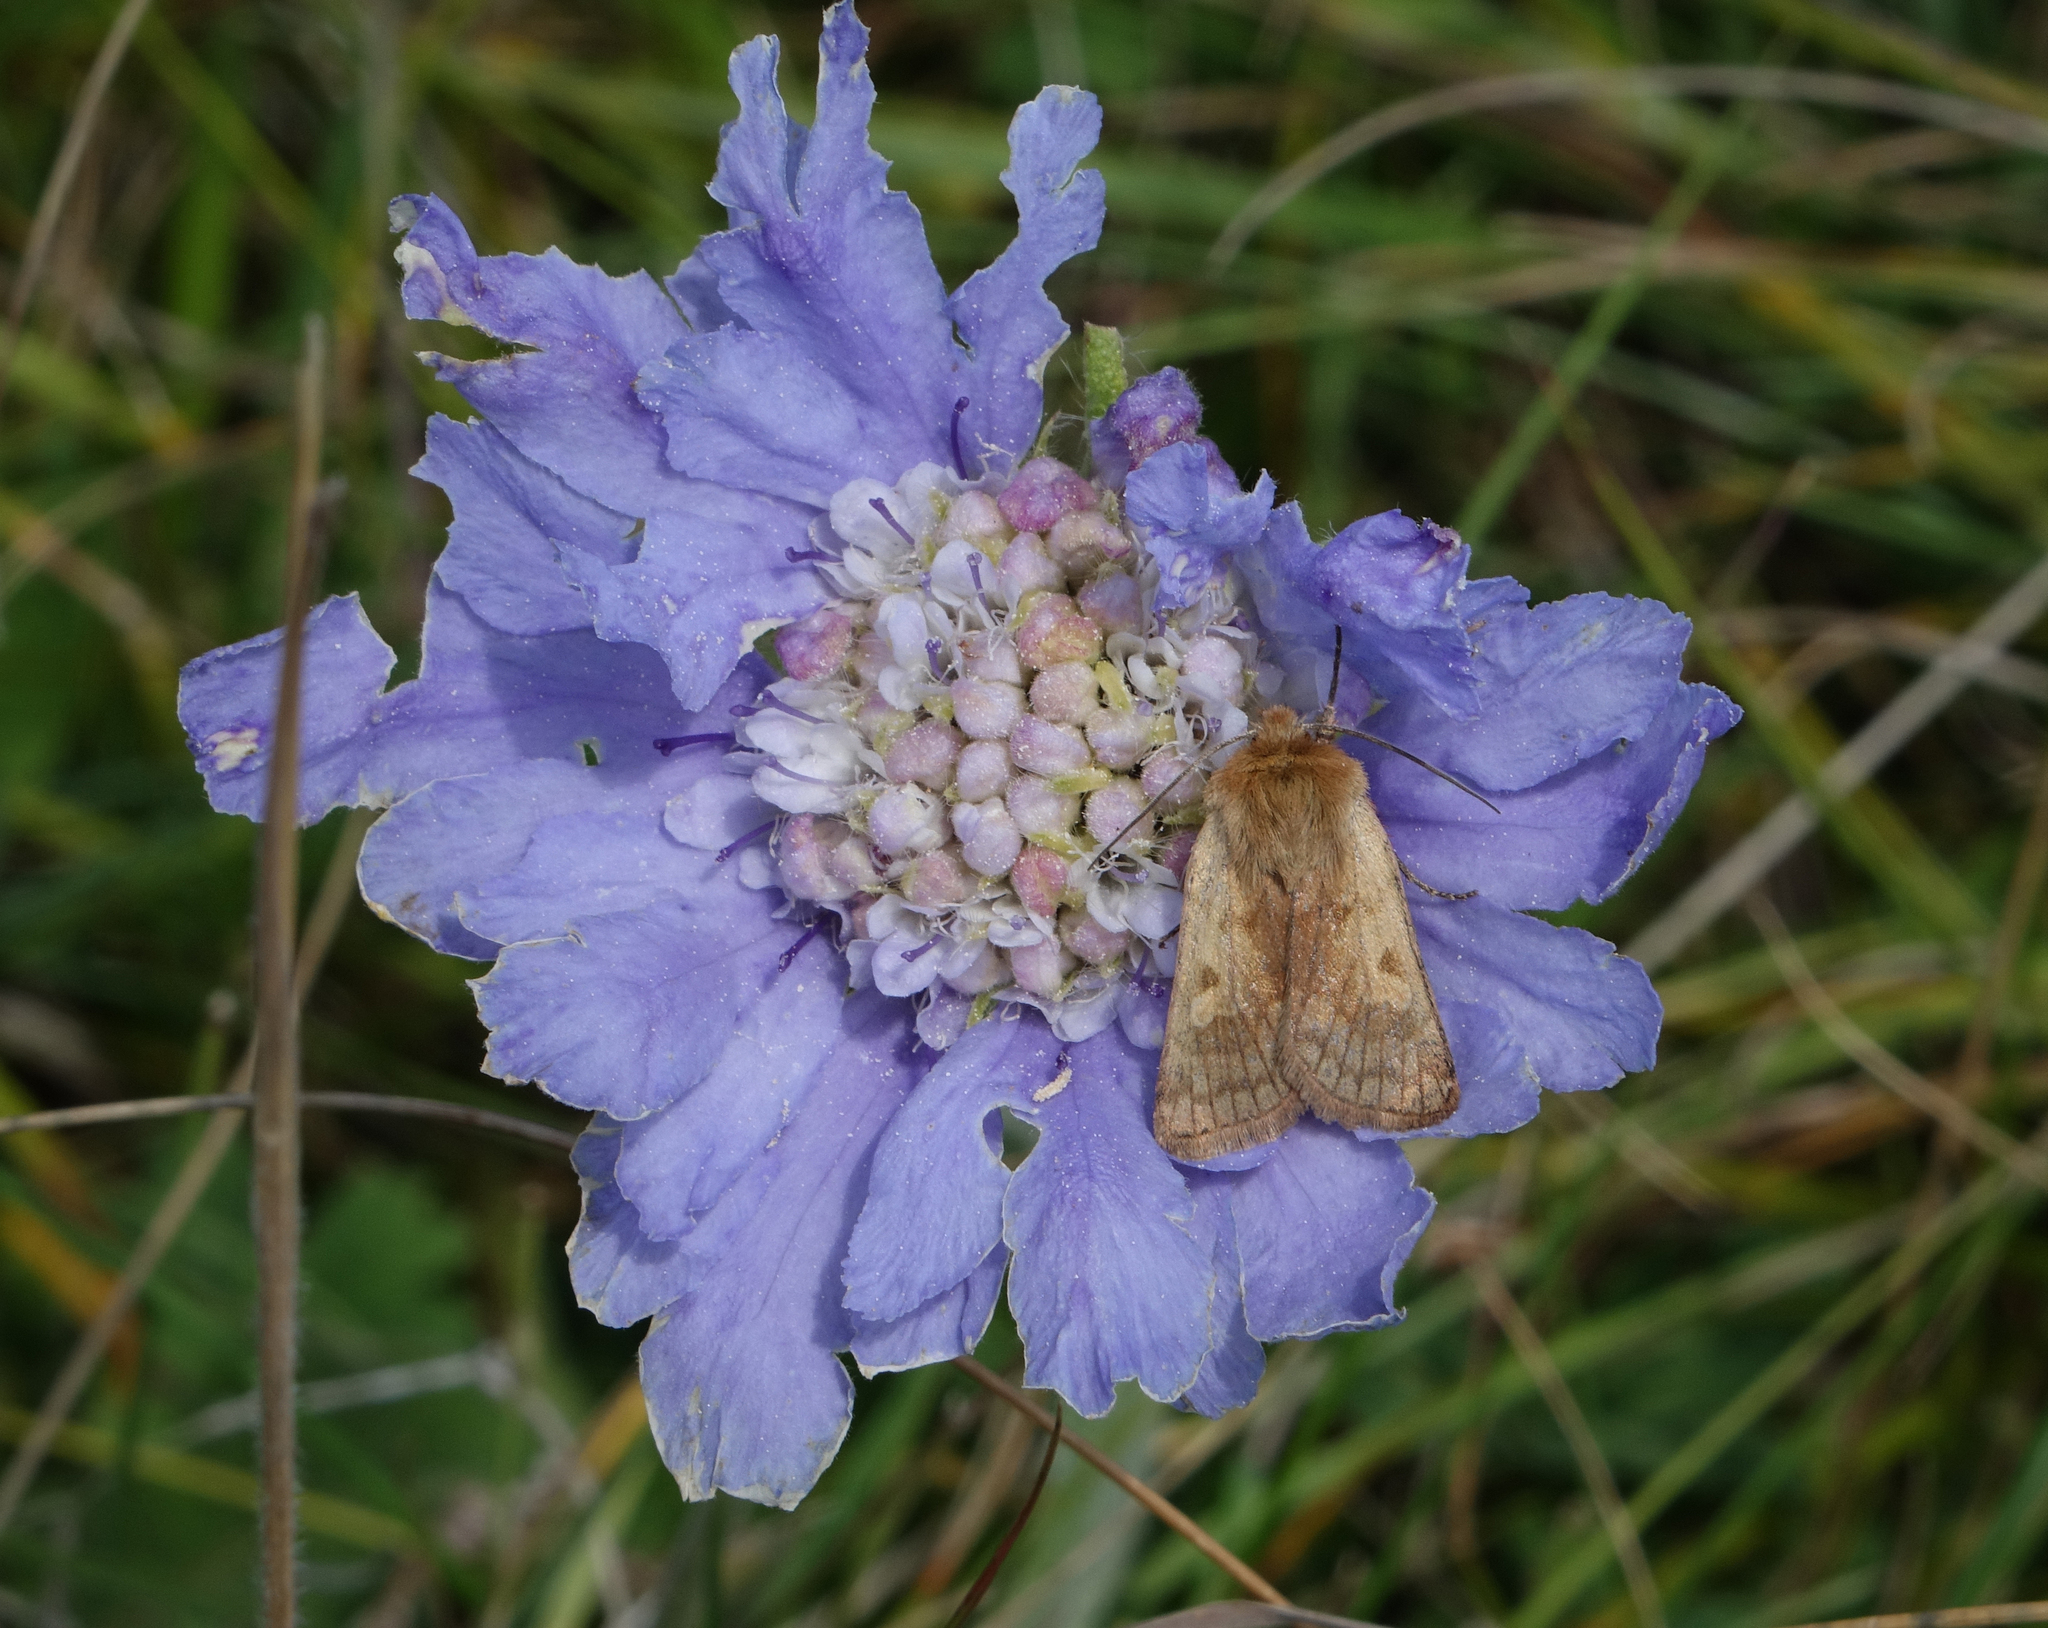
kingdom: Plantae
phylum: Tracheophyta
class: Magnoliopsida
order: Dipsacales
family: Caprifoliaceae
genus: Lomelosia
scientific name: Lomelosia caucasica
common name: Pincushion-flower
